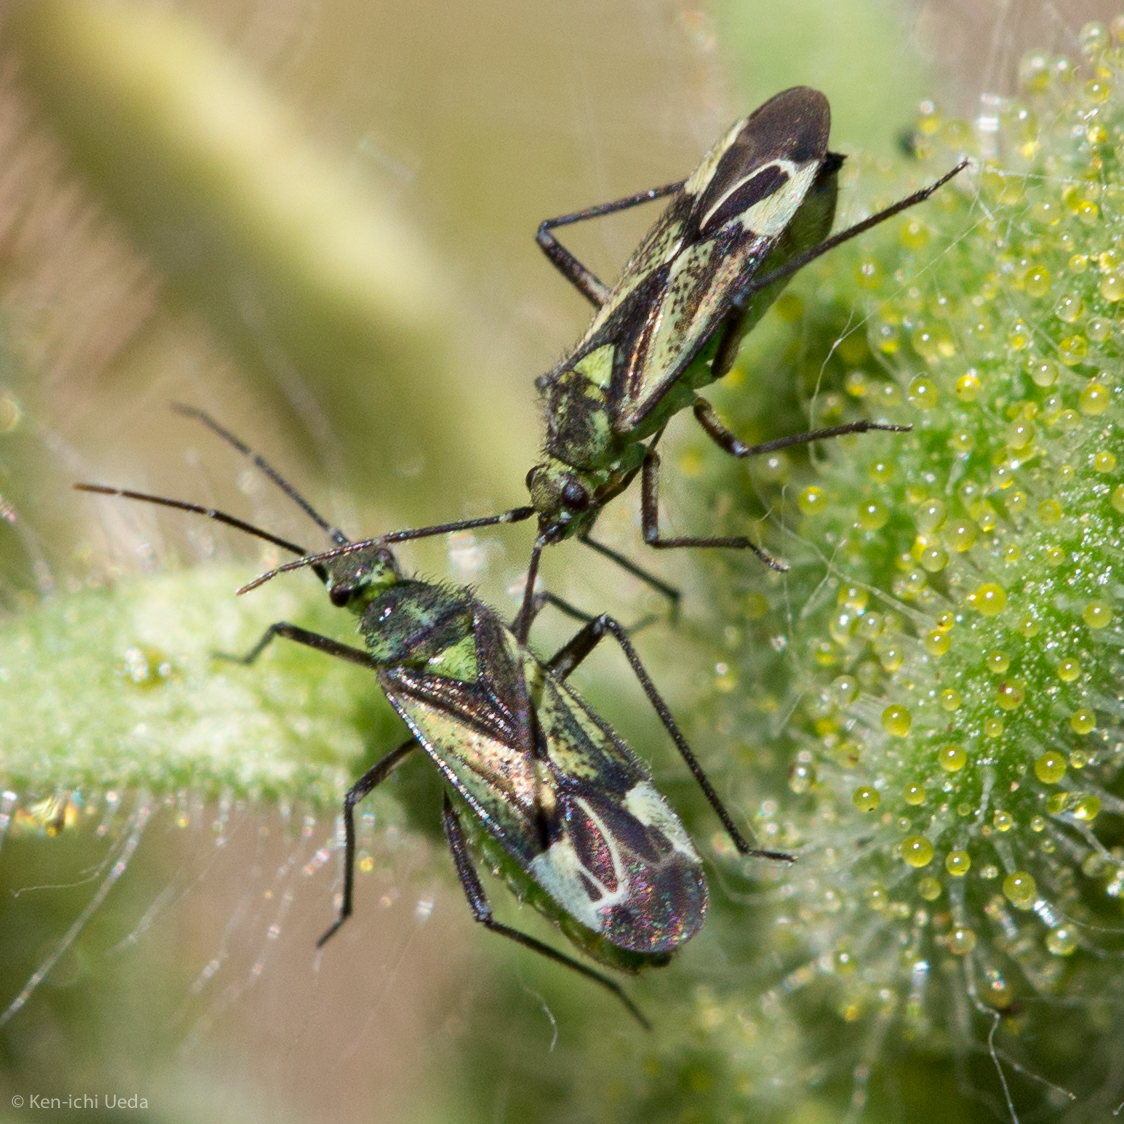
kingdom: Animalia
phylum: Arthropoda
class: Insecta
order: Hemiptera
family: Miridae
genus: Macrotylus
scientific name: Macrotylus intermedius
